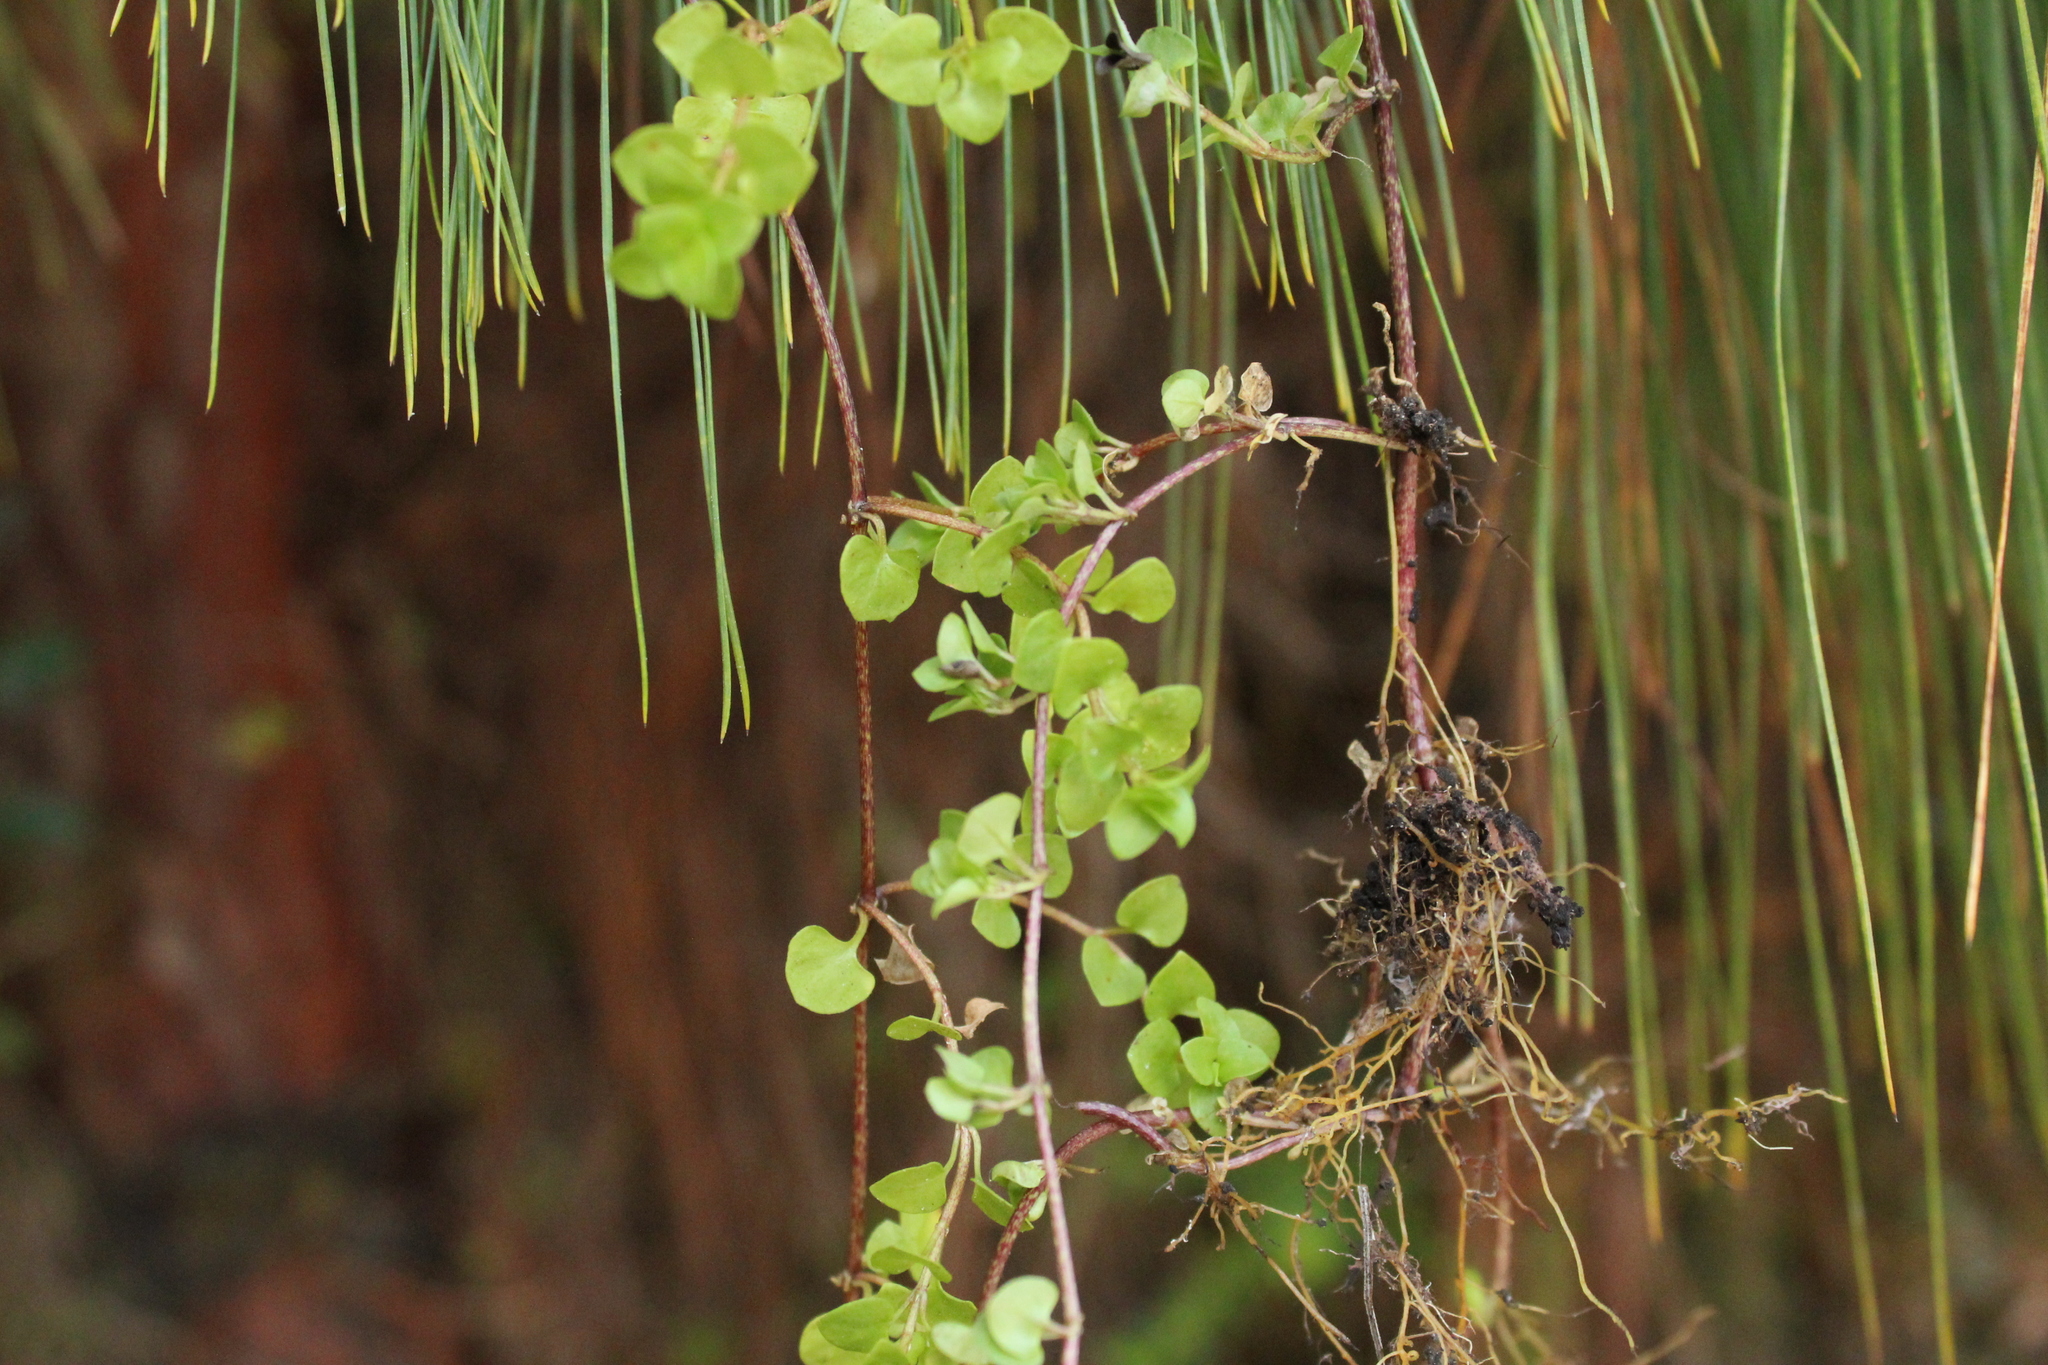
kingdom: Plantae
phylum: Tracheophyta
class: Magnoliopsida
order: Gentianales
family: Rubiaceae
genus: Nertera
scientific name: Nertera granadensis
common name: Beadplant
